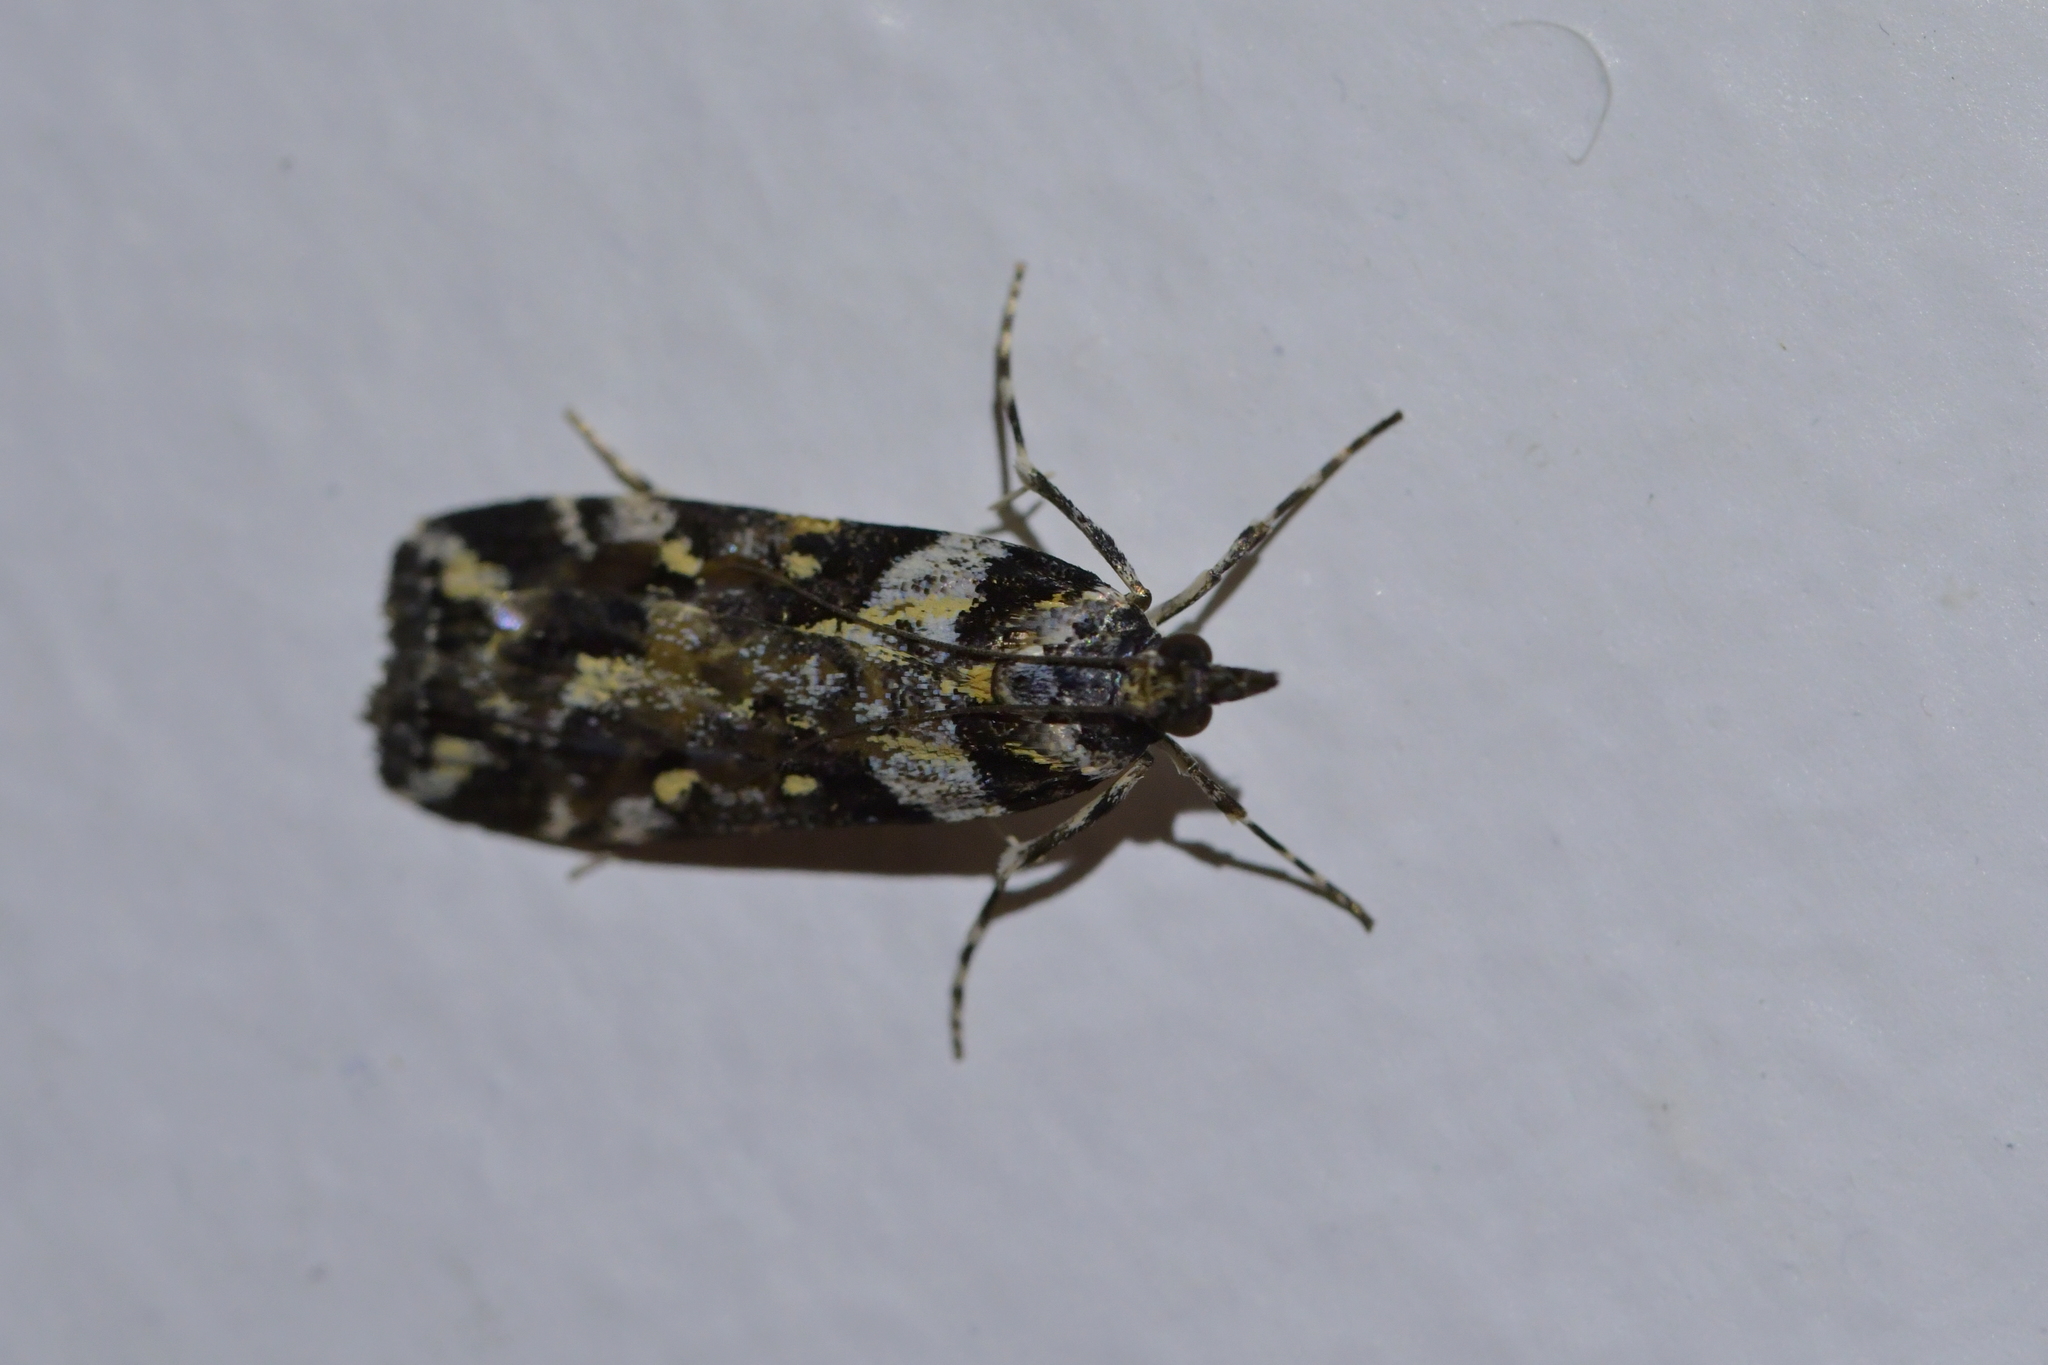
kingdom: Animalia
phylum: Arthropoda
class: Insecta
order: Lepidoptera
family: Crambidae
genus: Eudonia
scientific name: Eudonia diphtheralis
